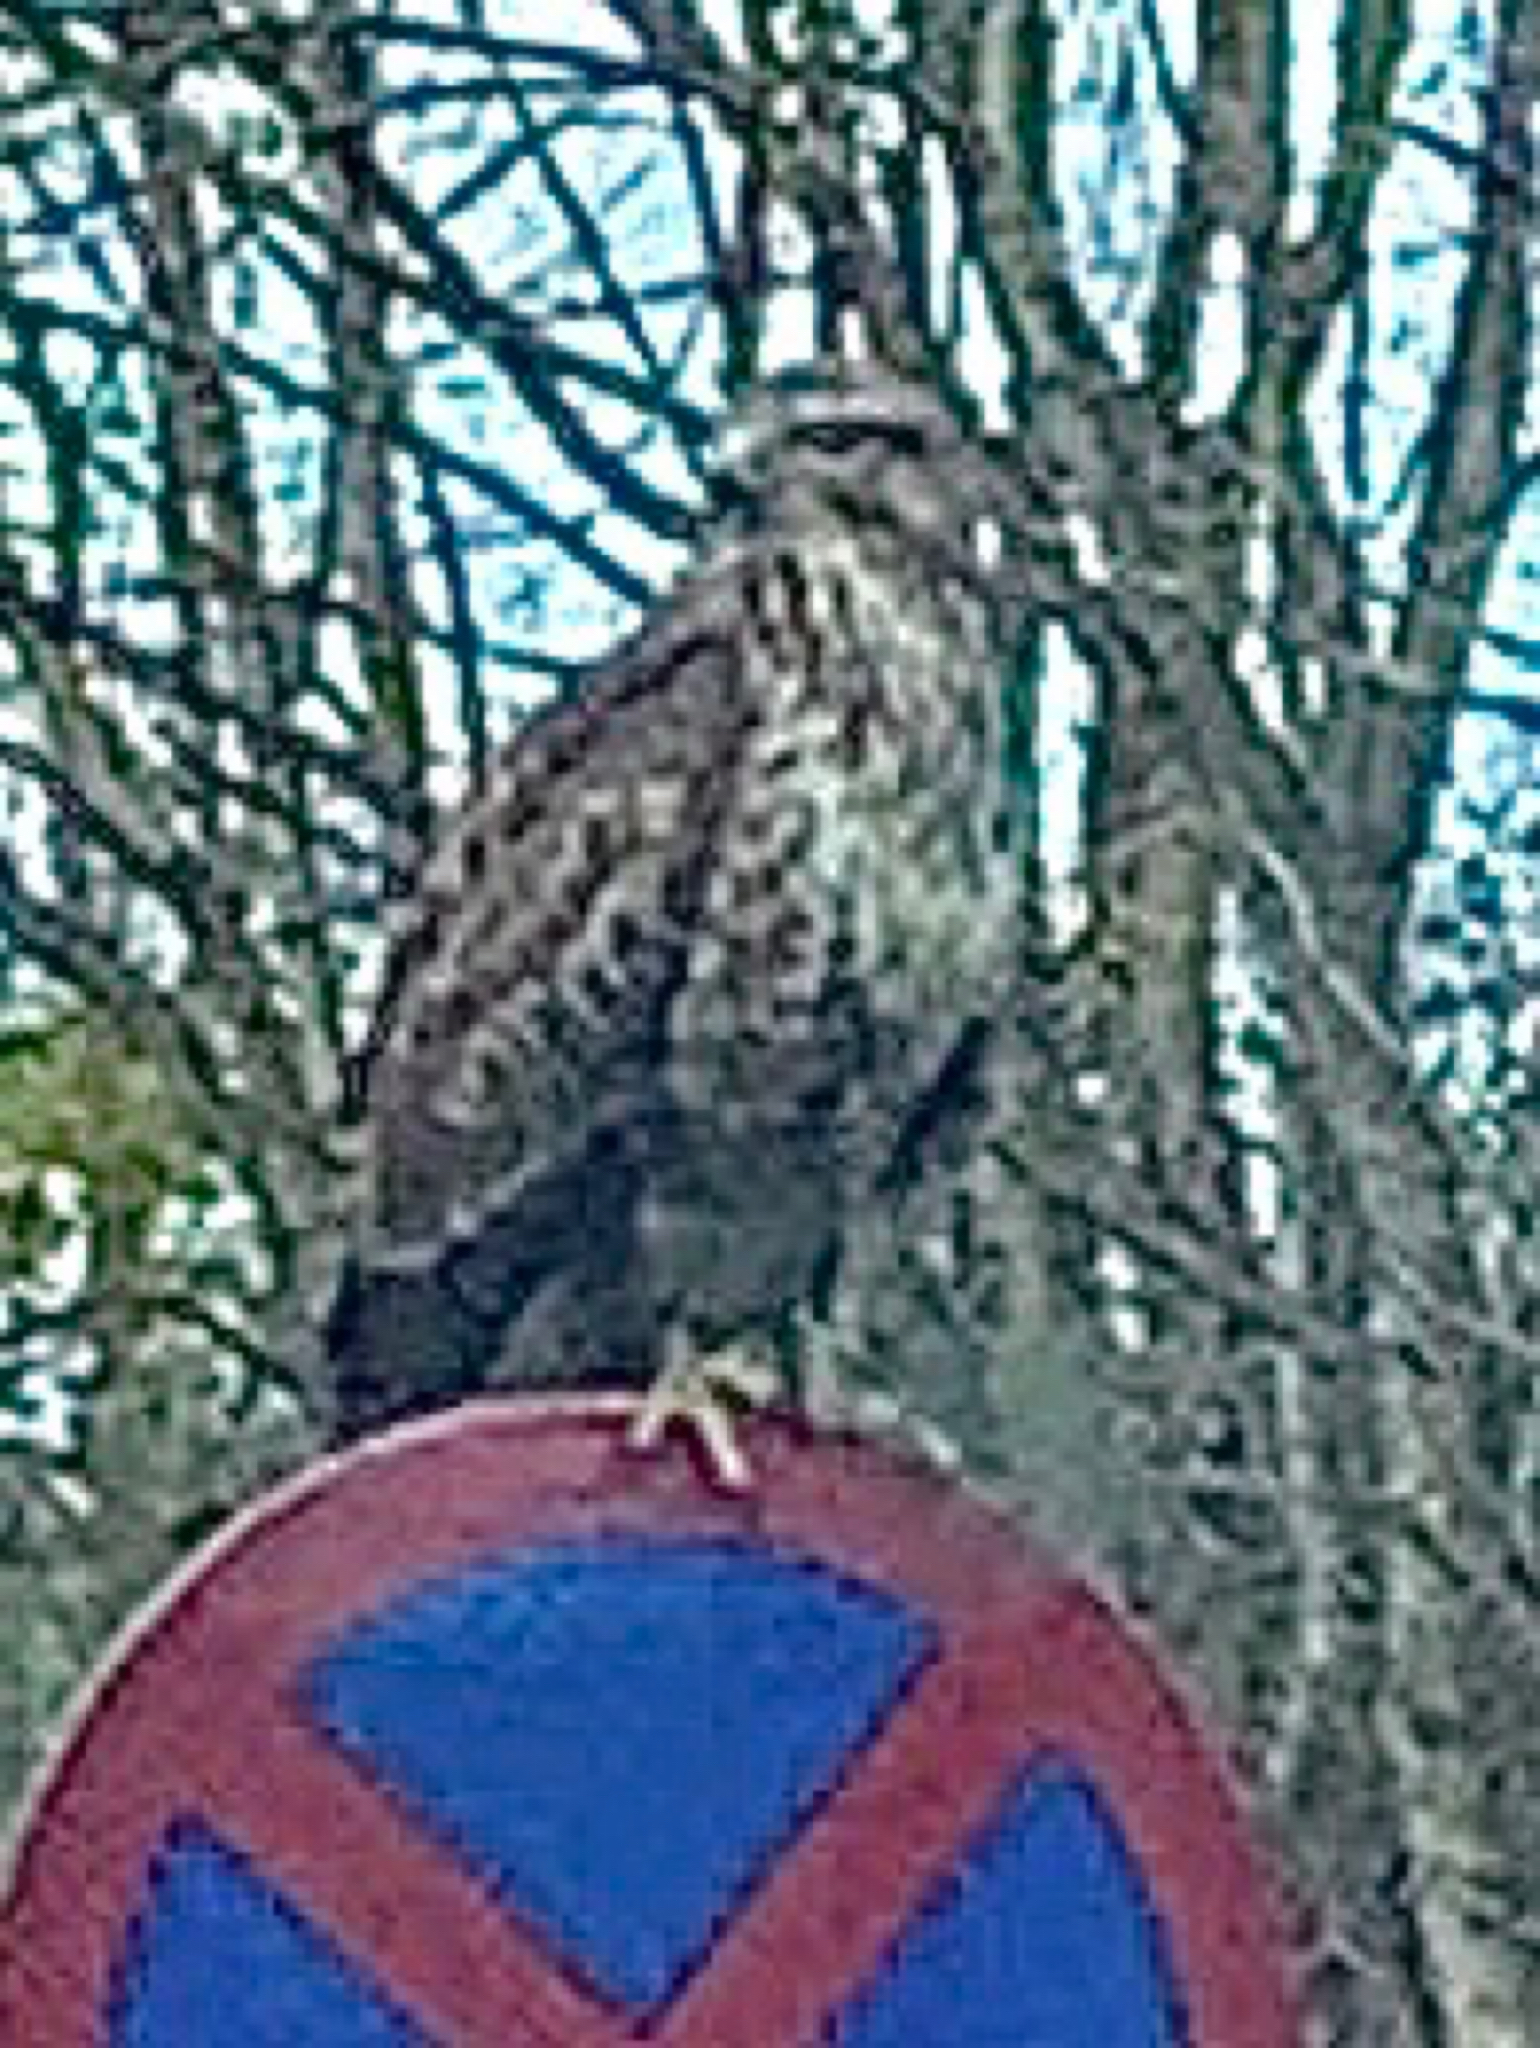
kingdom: Animalia
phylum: Chordata
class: Aves
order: Accipitriformes
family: Accipitridae
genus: Buteo
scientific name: Buteo buteo
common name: Common buzzard
